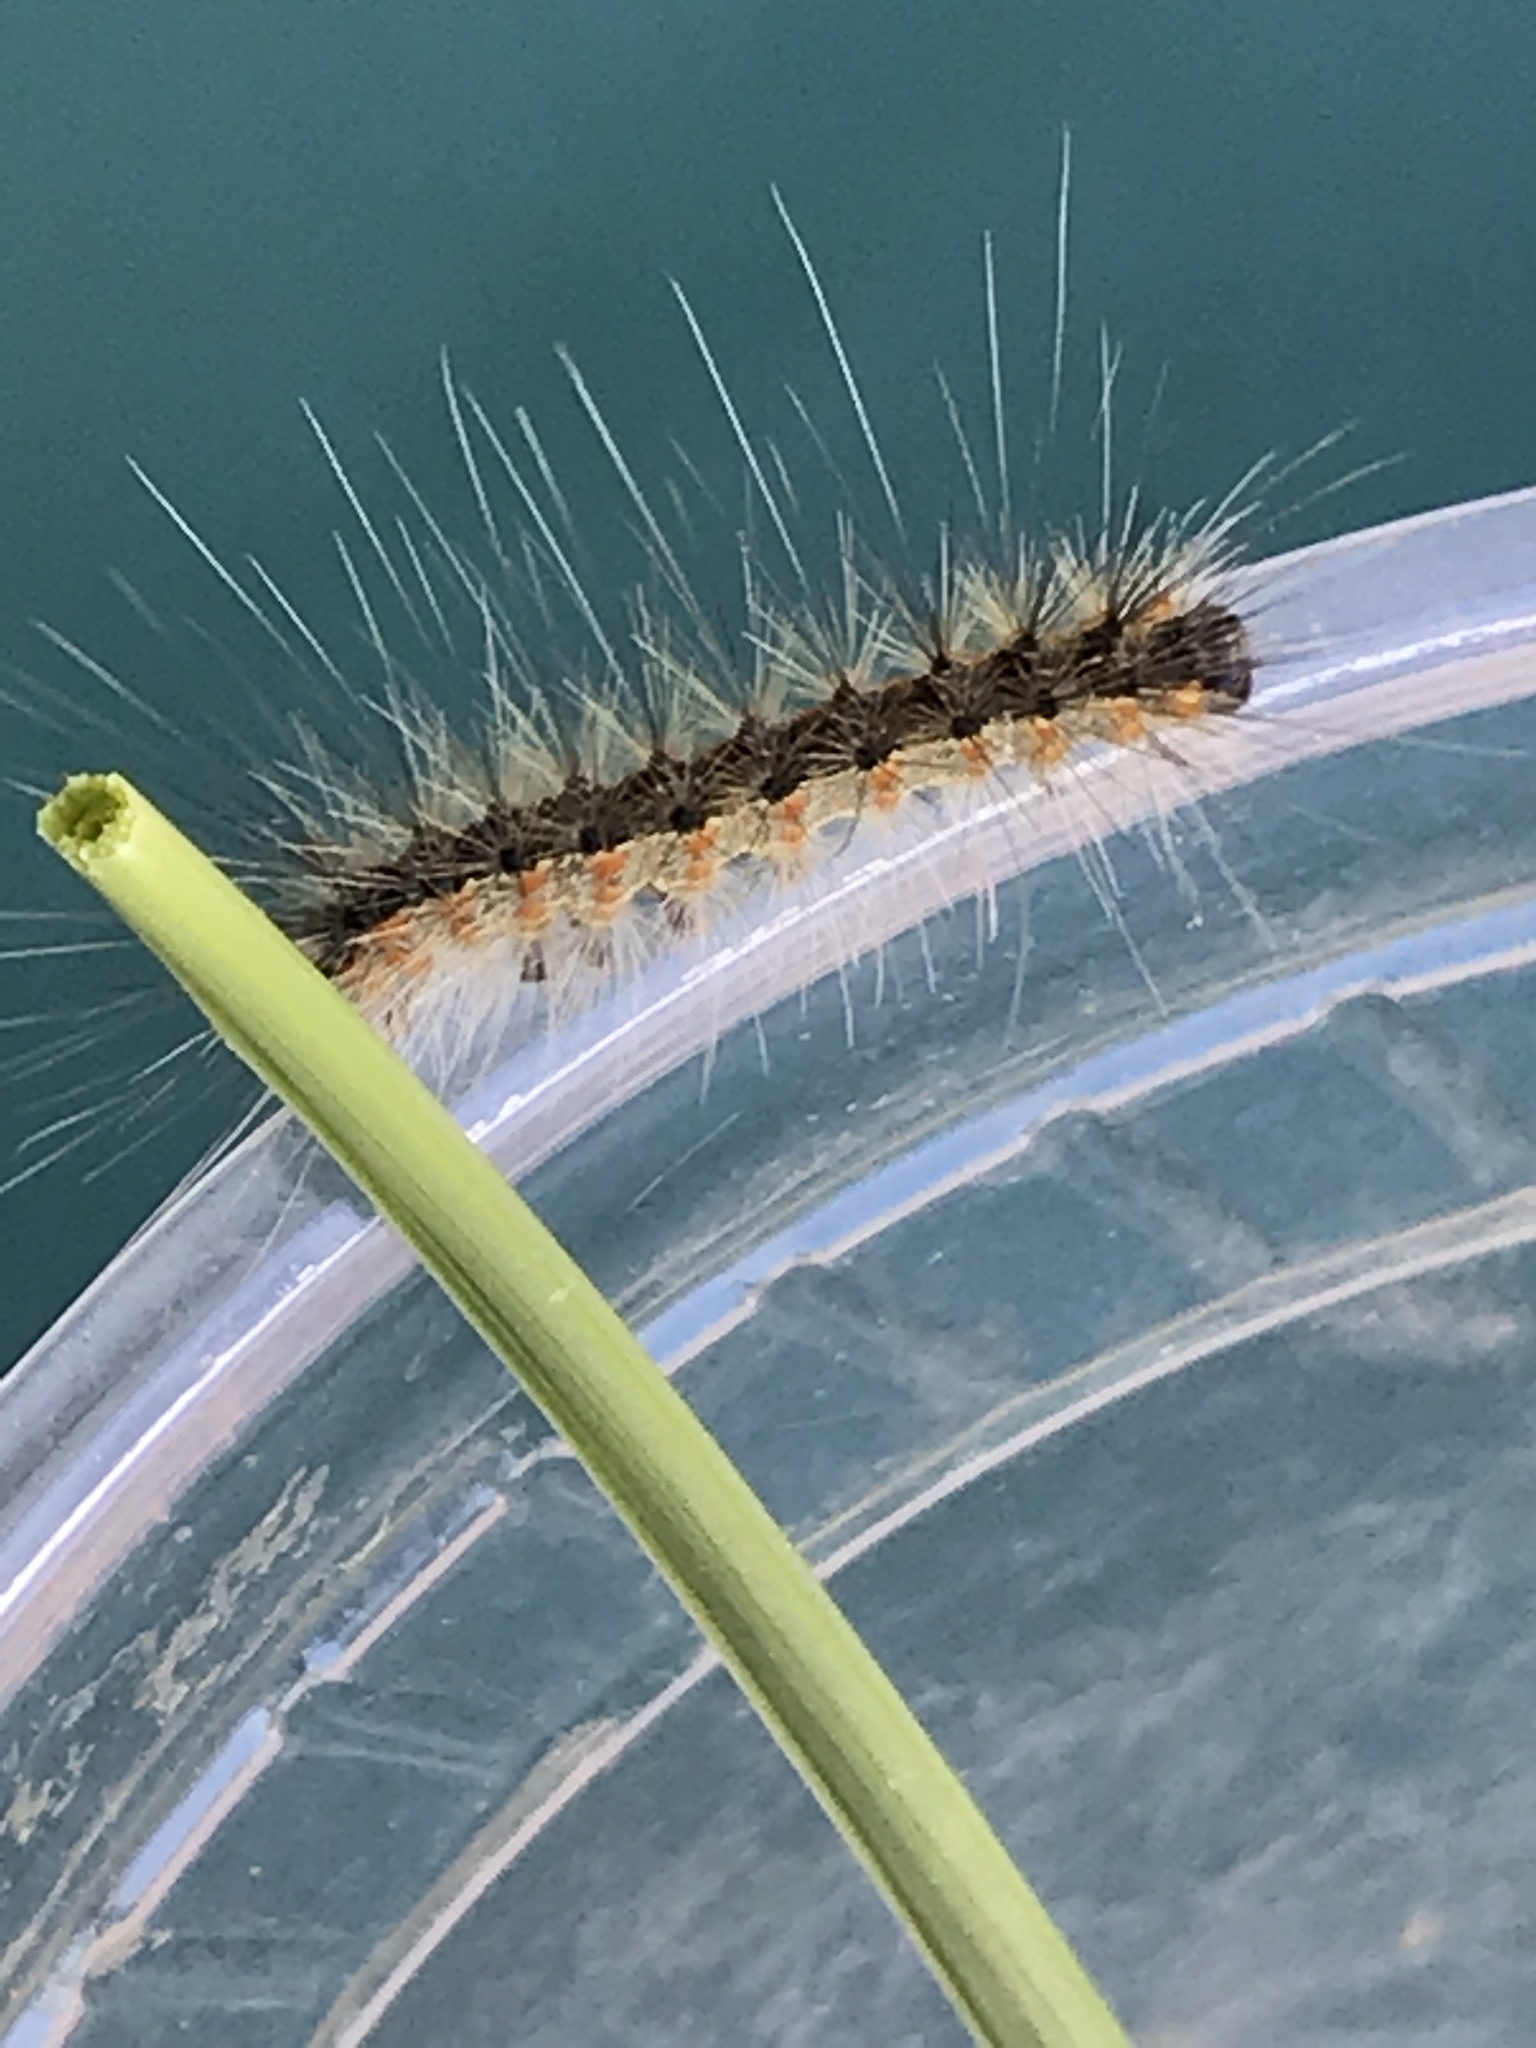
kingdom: Animalia
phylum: Arthropoda
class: Insecta
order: Lepidoptera
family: Erebidae
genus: Hyphantria
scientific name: Hyphantria cunea
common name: American white moth
